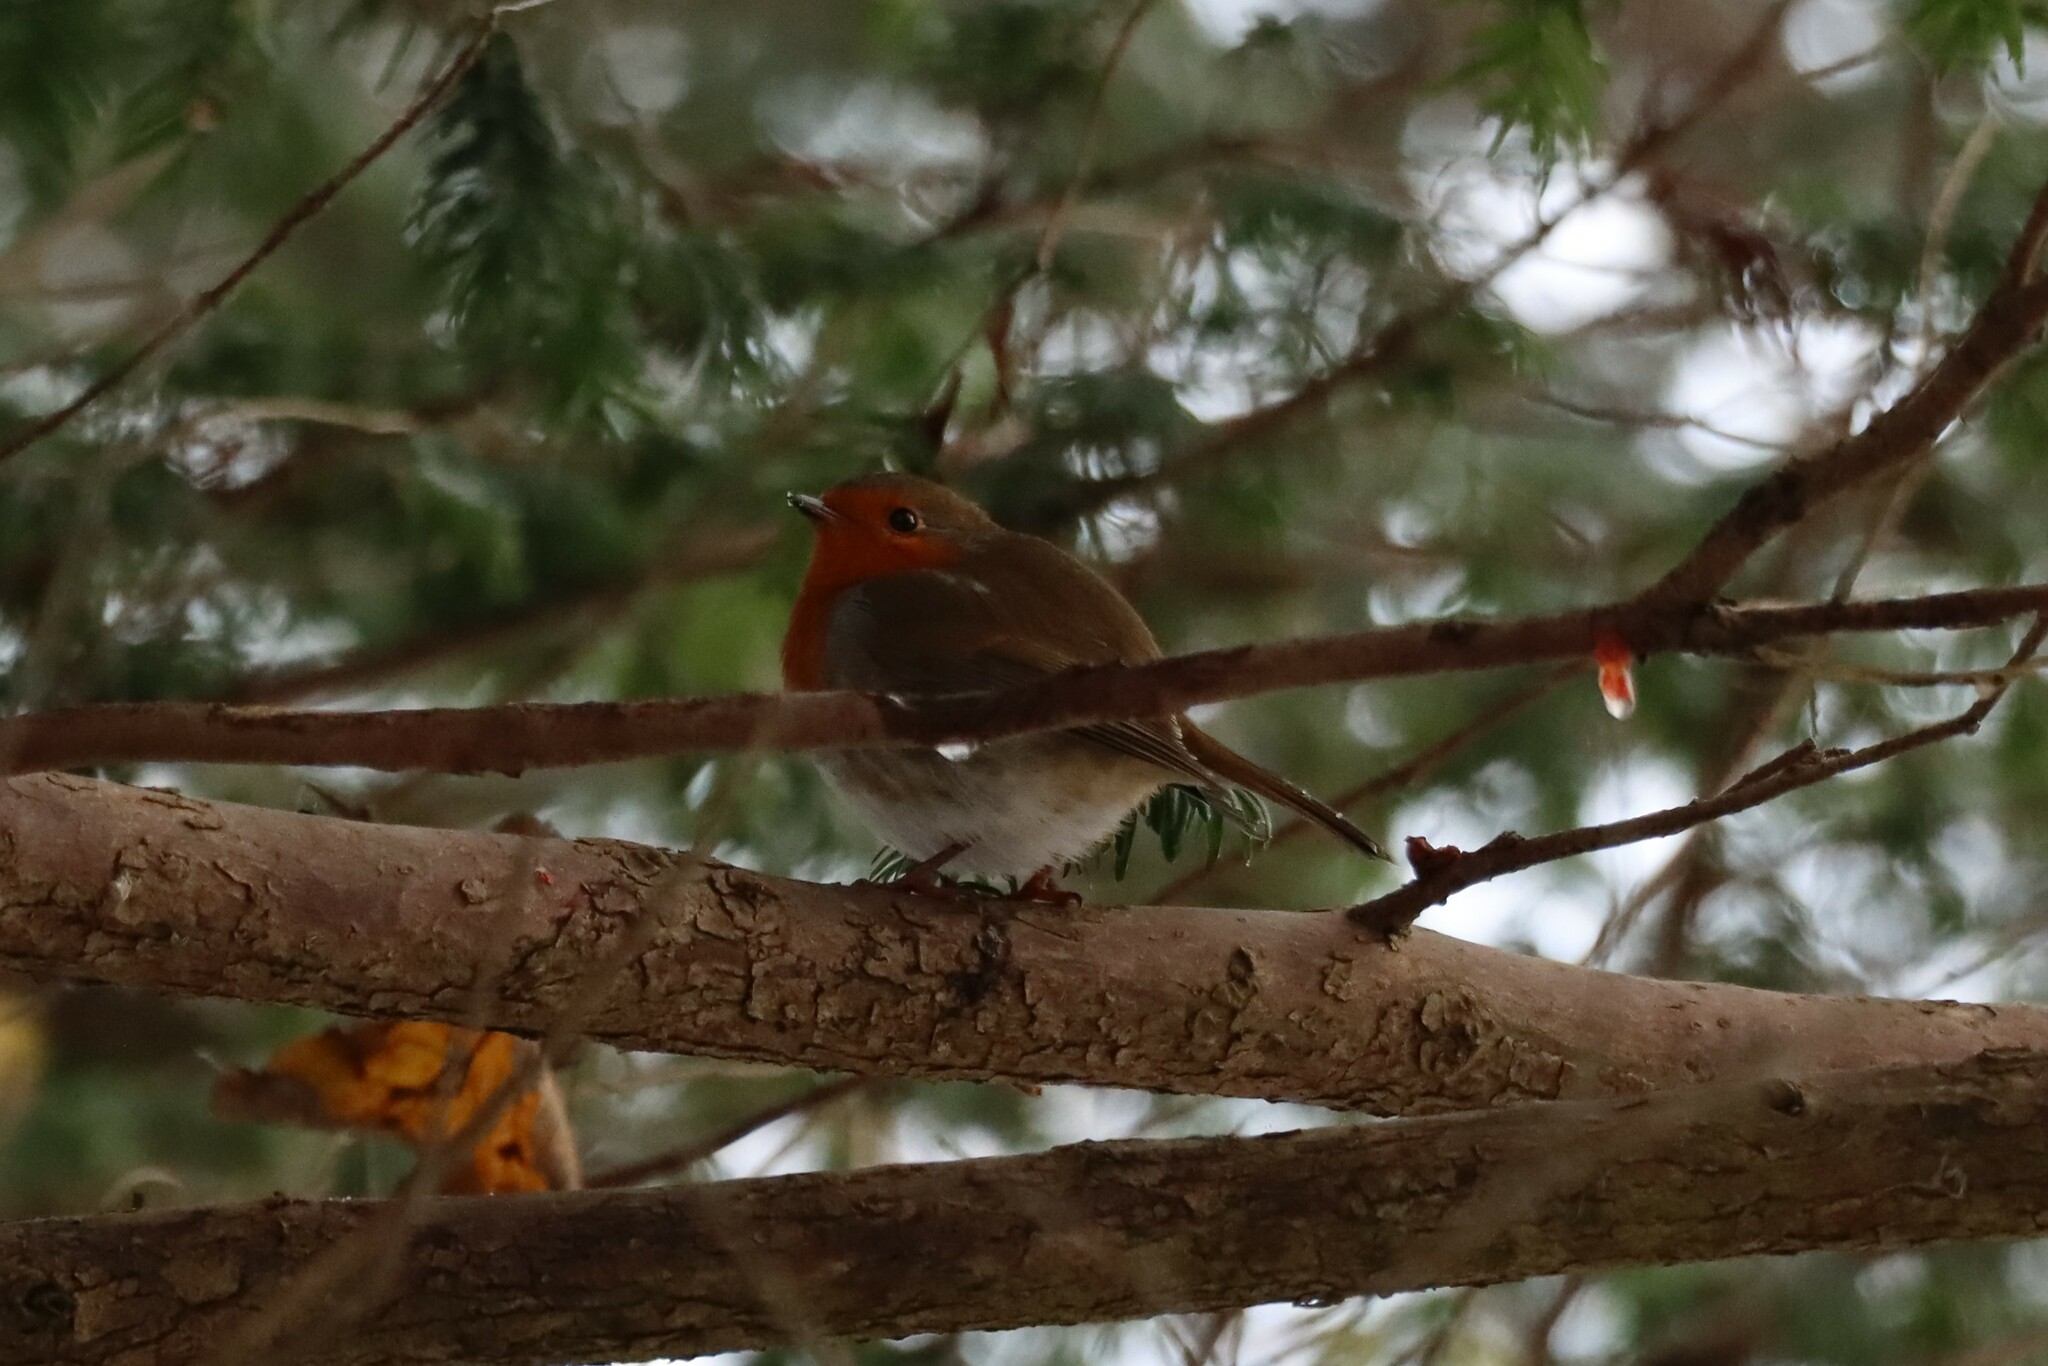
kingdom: Animalia
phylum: Chordata
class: Aves
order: Passeriformes
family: Muscicapidae
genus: Erithacus
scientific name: Erithacus rubecula
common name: European robin
